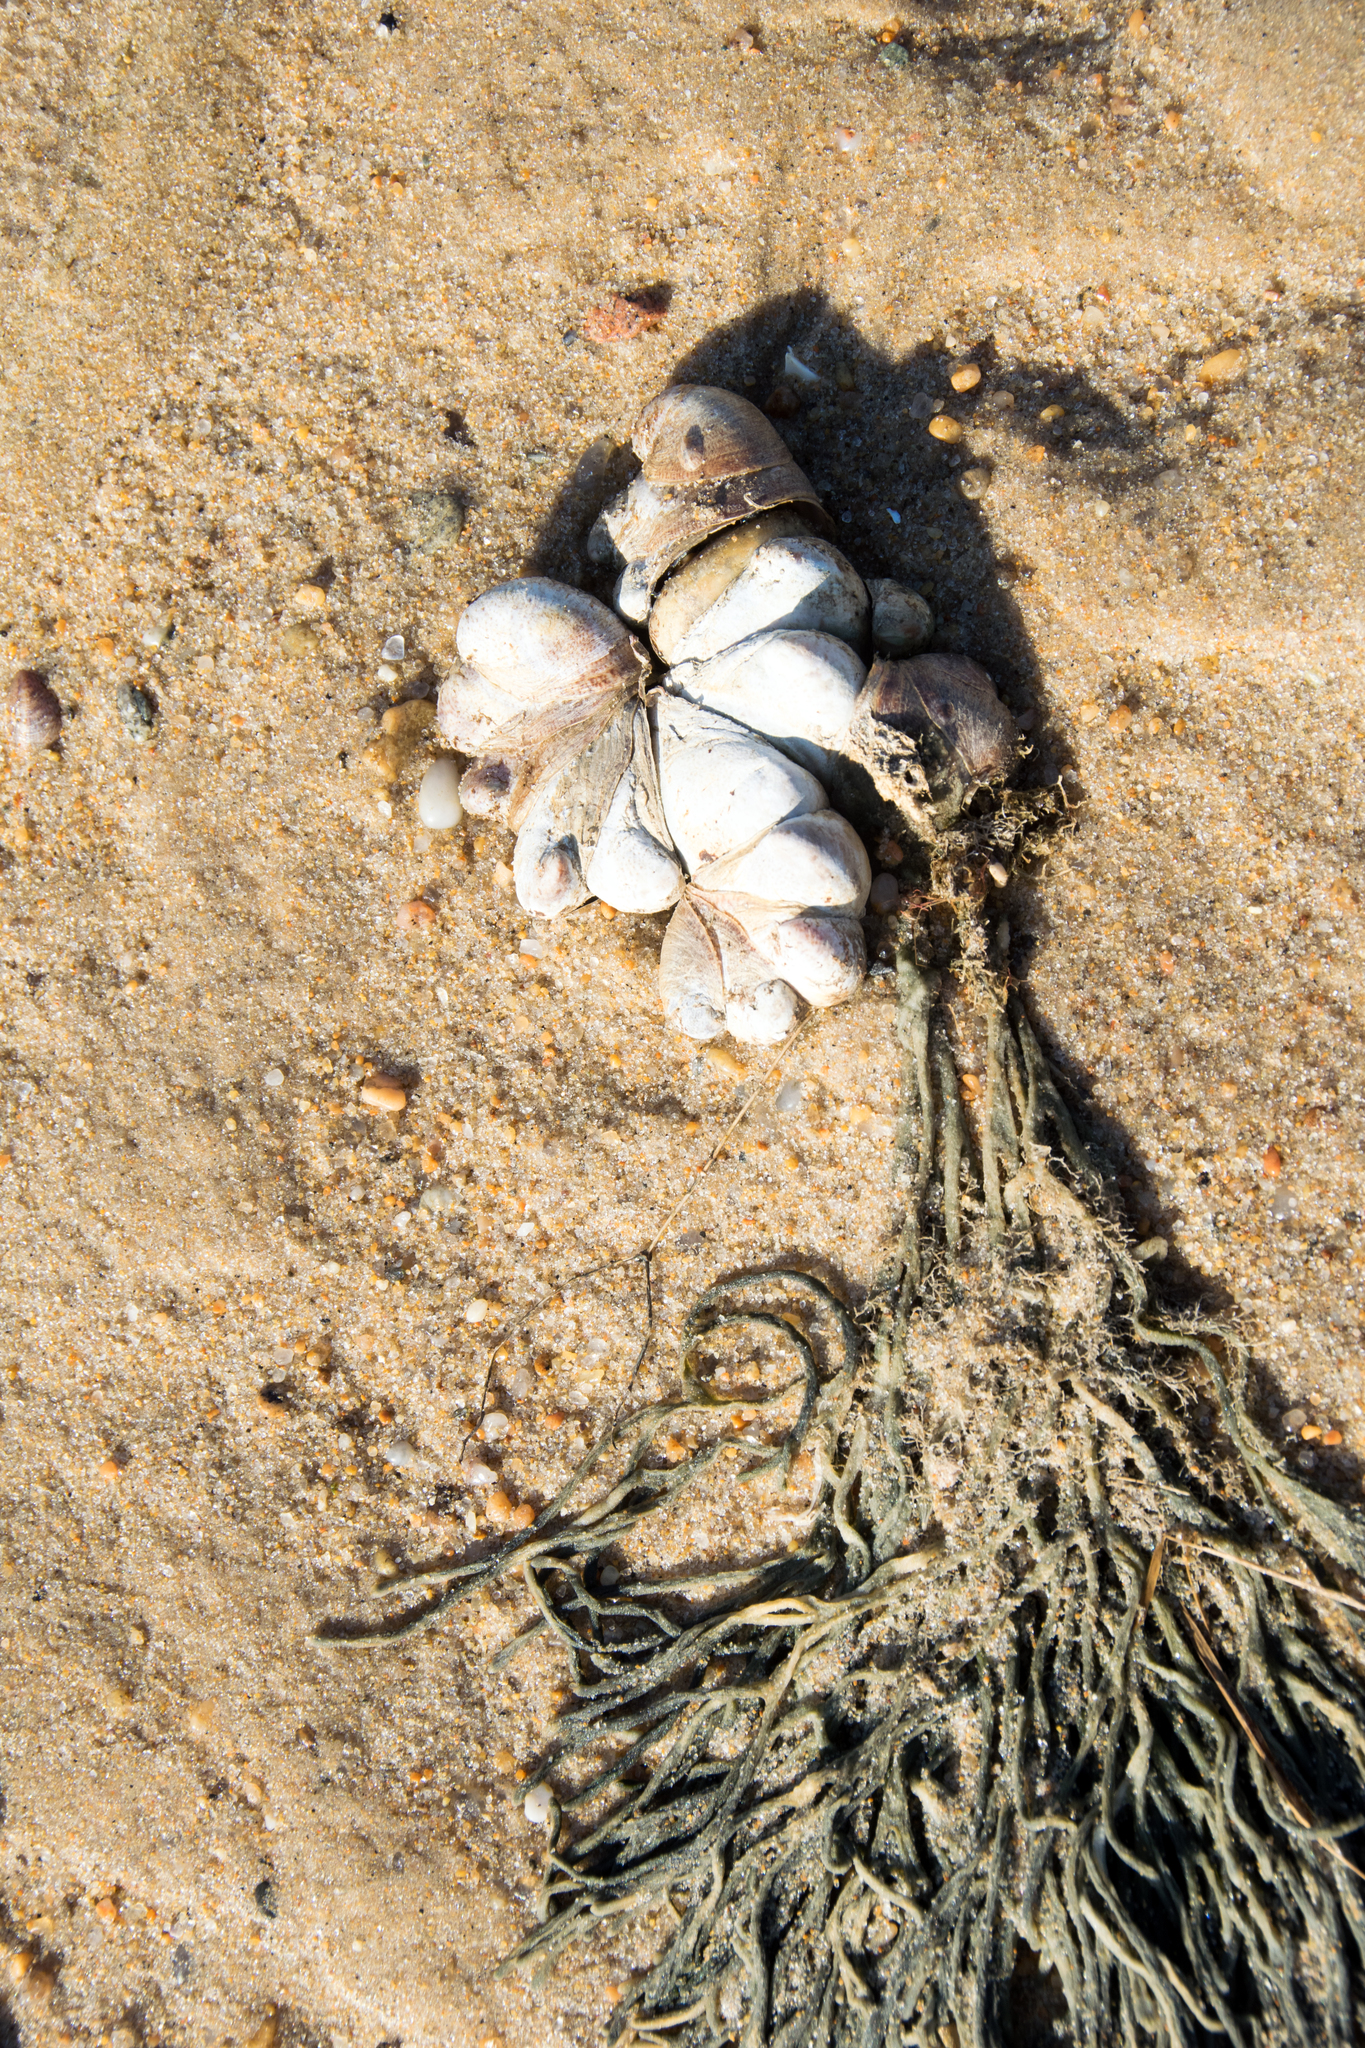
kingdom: Plantae
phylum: Chlorophyta
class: Ulvophyceae
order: Bryopsidales
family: Codiaceae
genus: Codium
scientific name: Codium fragile
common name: Dead man's fingers
